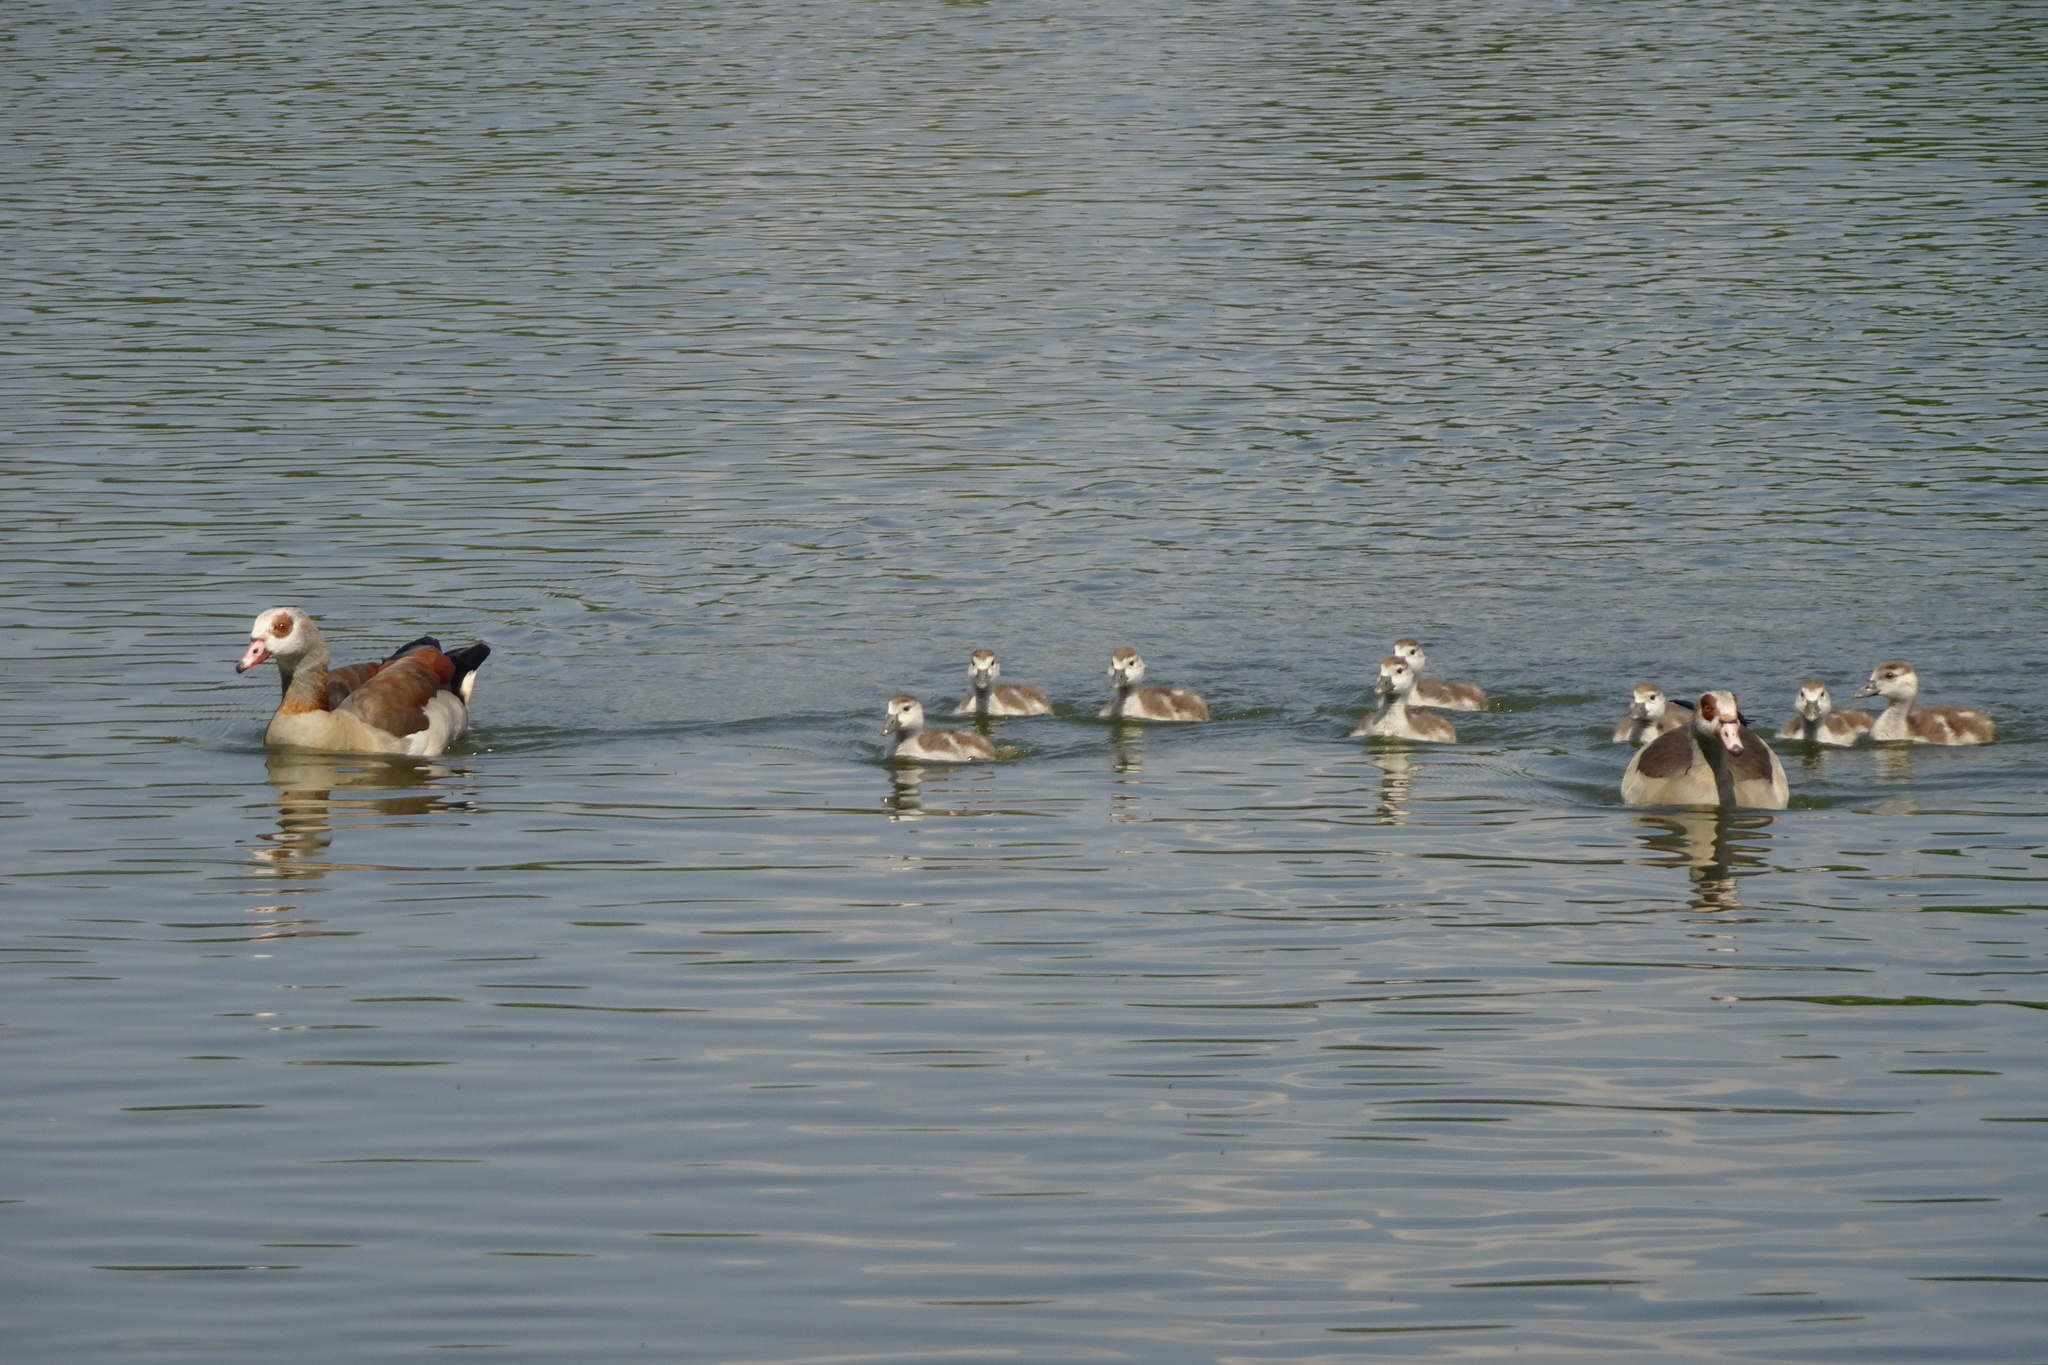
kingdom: Animalia
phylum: Chordata
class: Aves
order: Anseriformes
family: Anatidae
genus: Alopochen
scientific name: Alopochen aegyptiaca
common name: Egyptian goose
